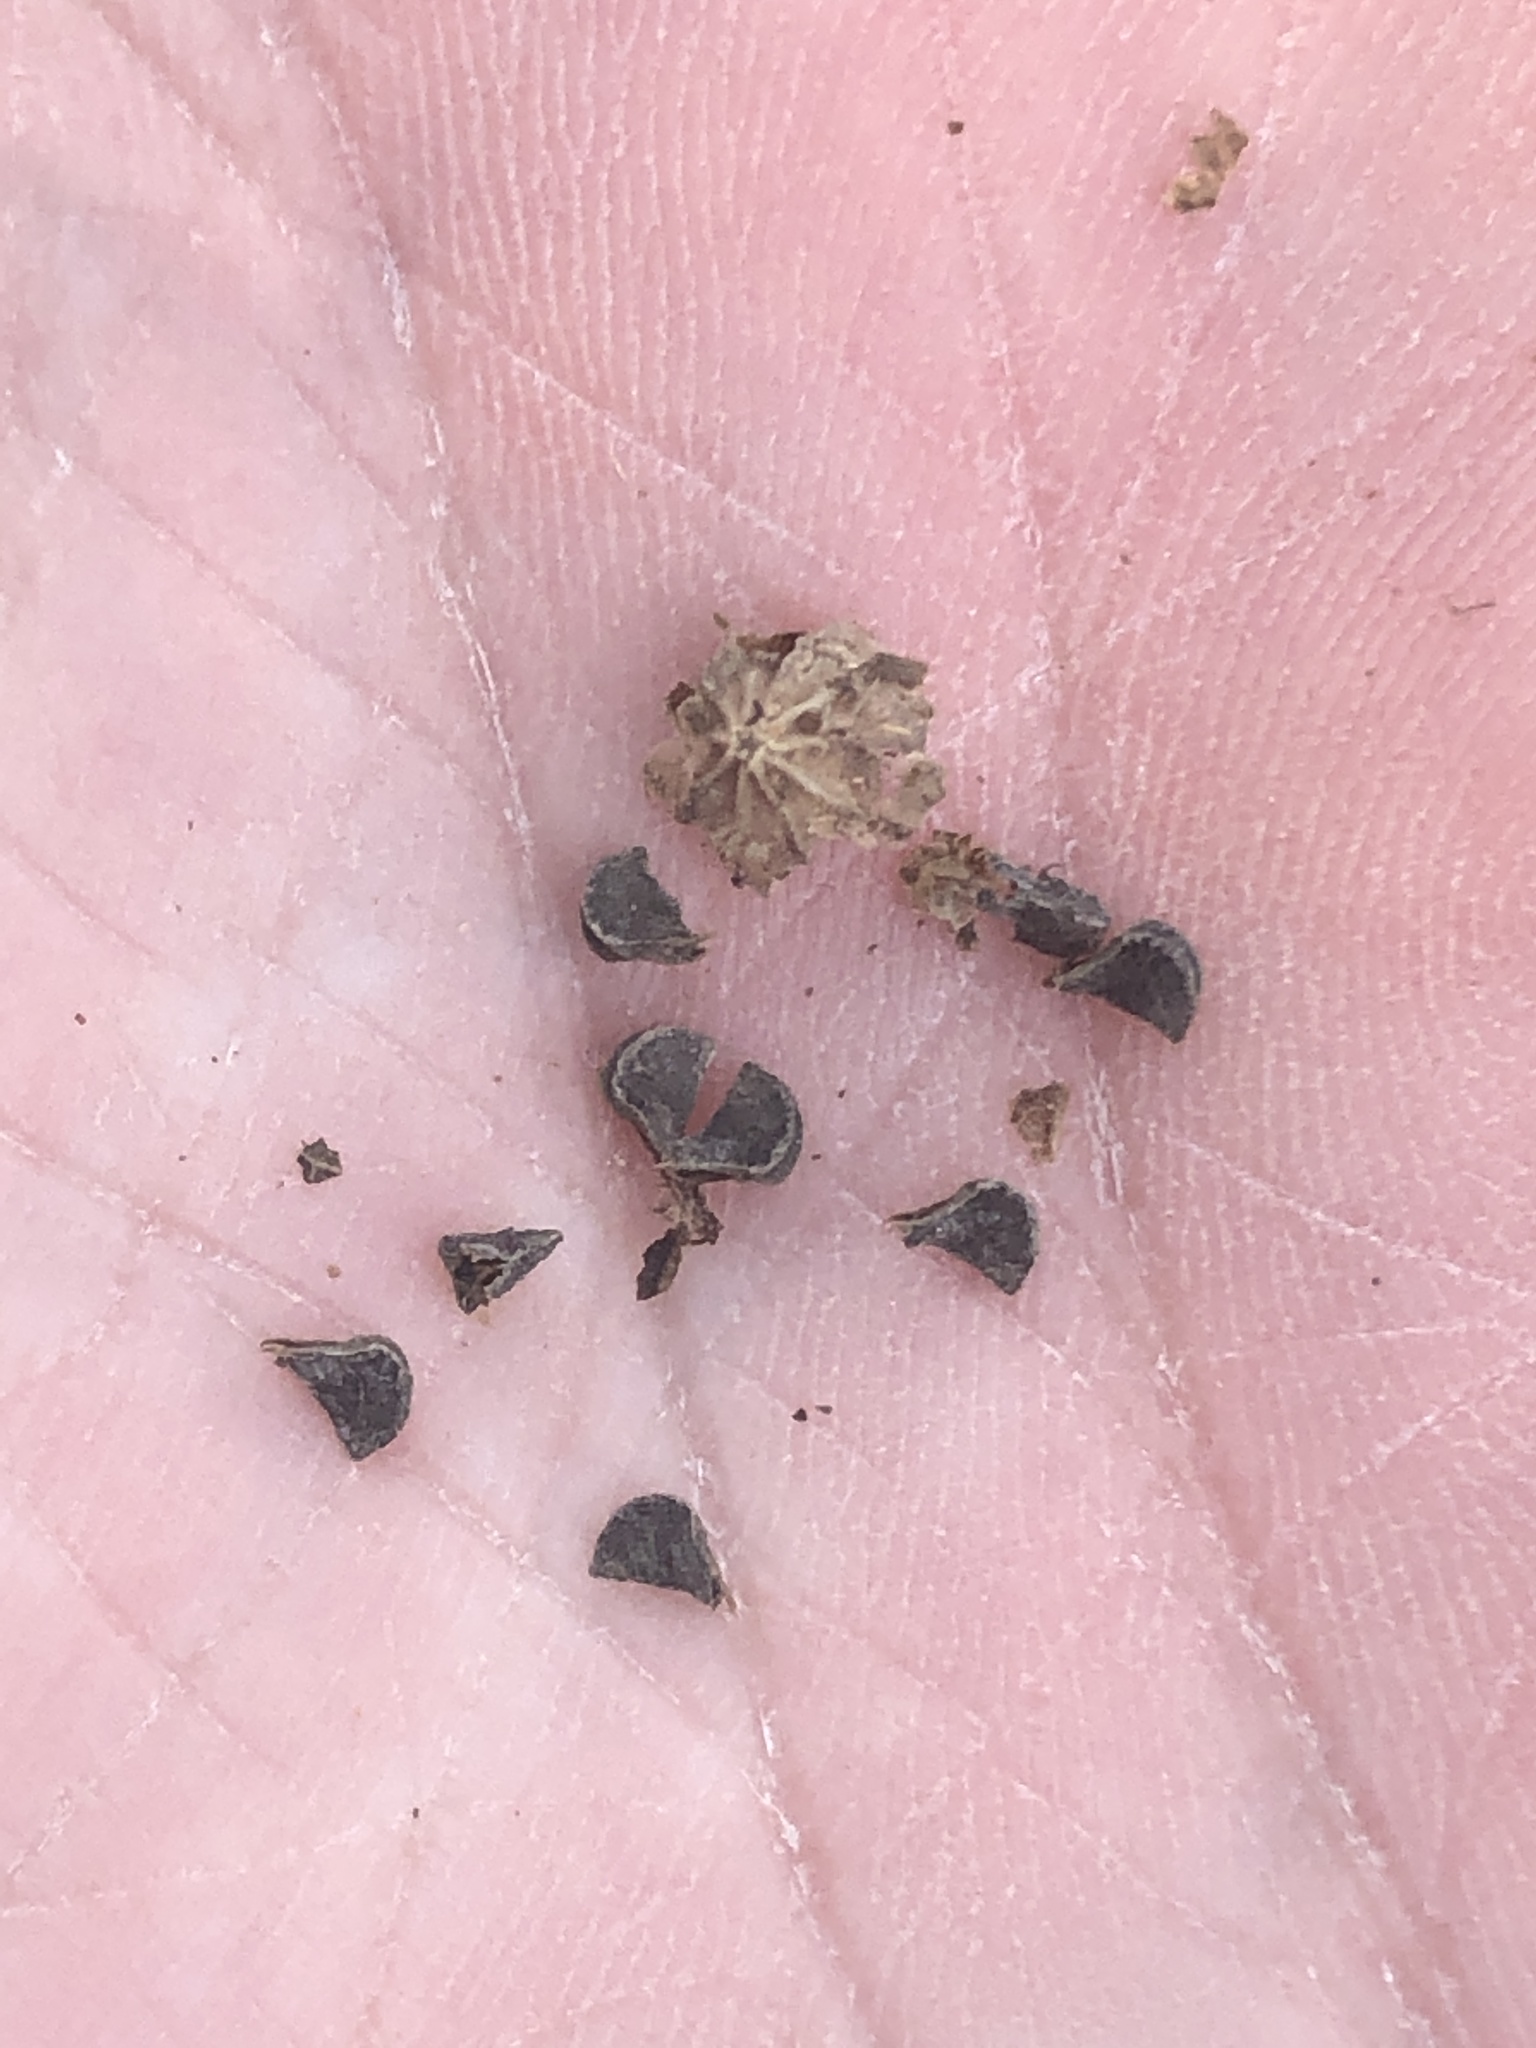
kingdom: Plantae
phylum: Tracheophyta
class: Magnoliopsida
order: Malvales
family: Malvaceae
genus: Sida
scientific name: Sida rhombifolia
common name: Queensland-hemp
